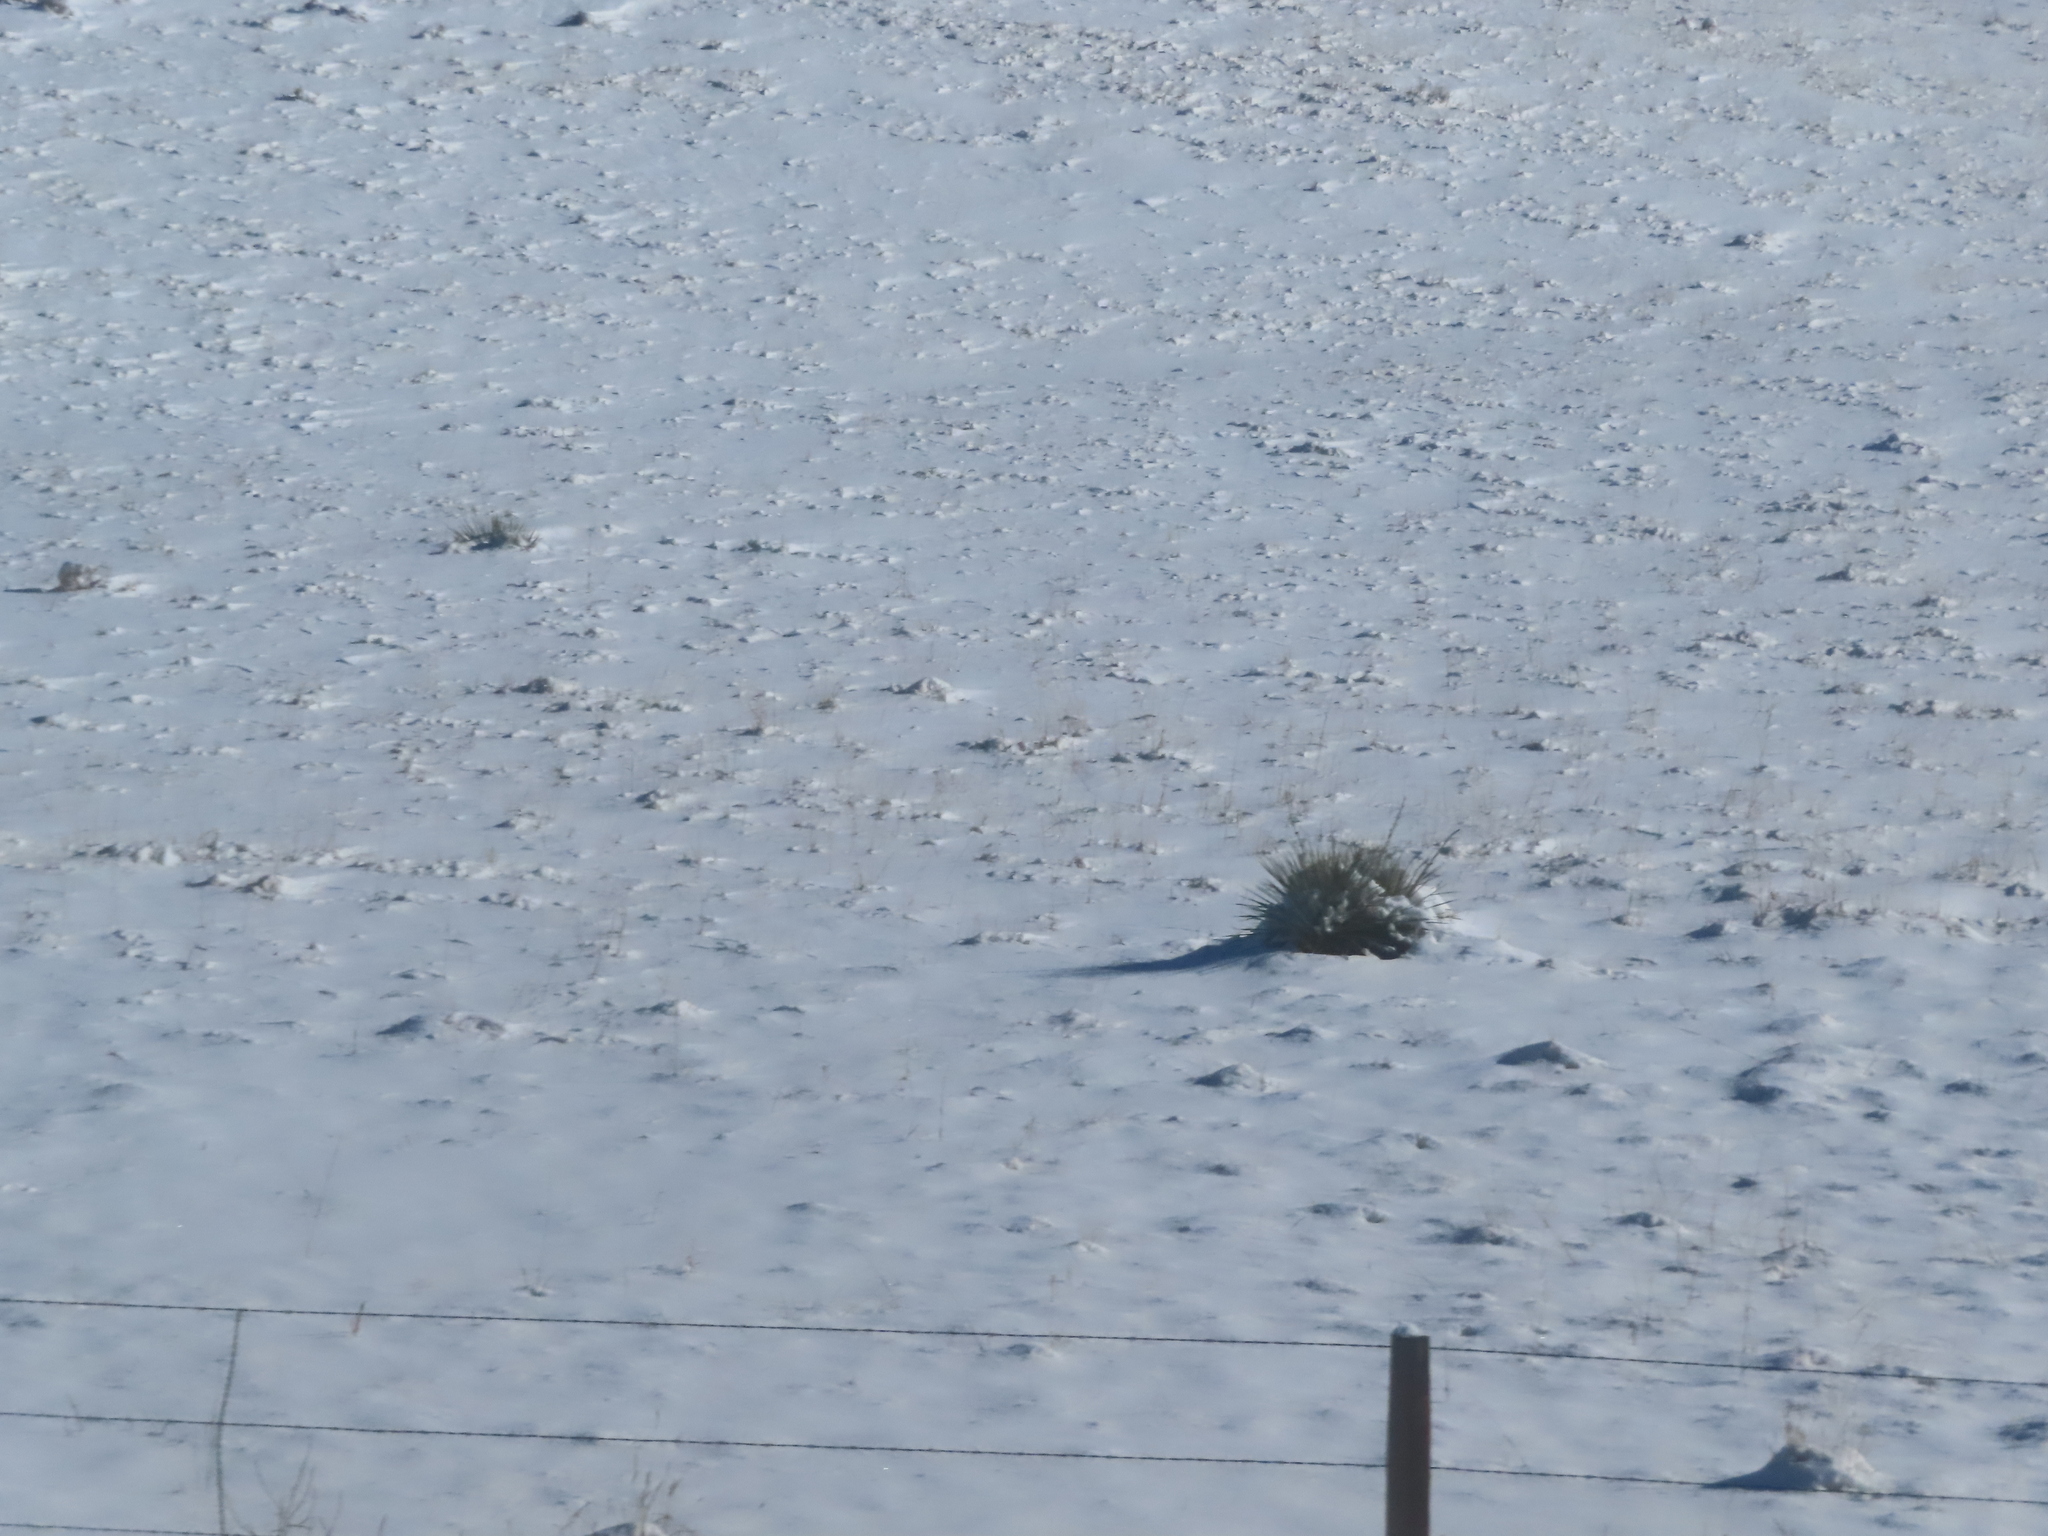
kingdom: Plantae
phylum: Tracheophyta
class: Liliopsida
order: Asparagales
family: Asparagaceae
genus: Yucca
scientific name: Yucca glauca
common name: Great plains yucca
